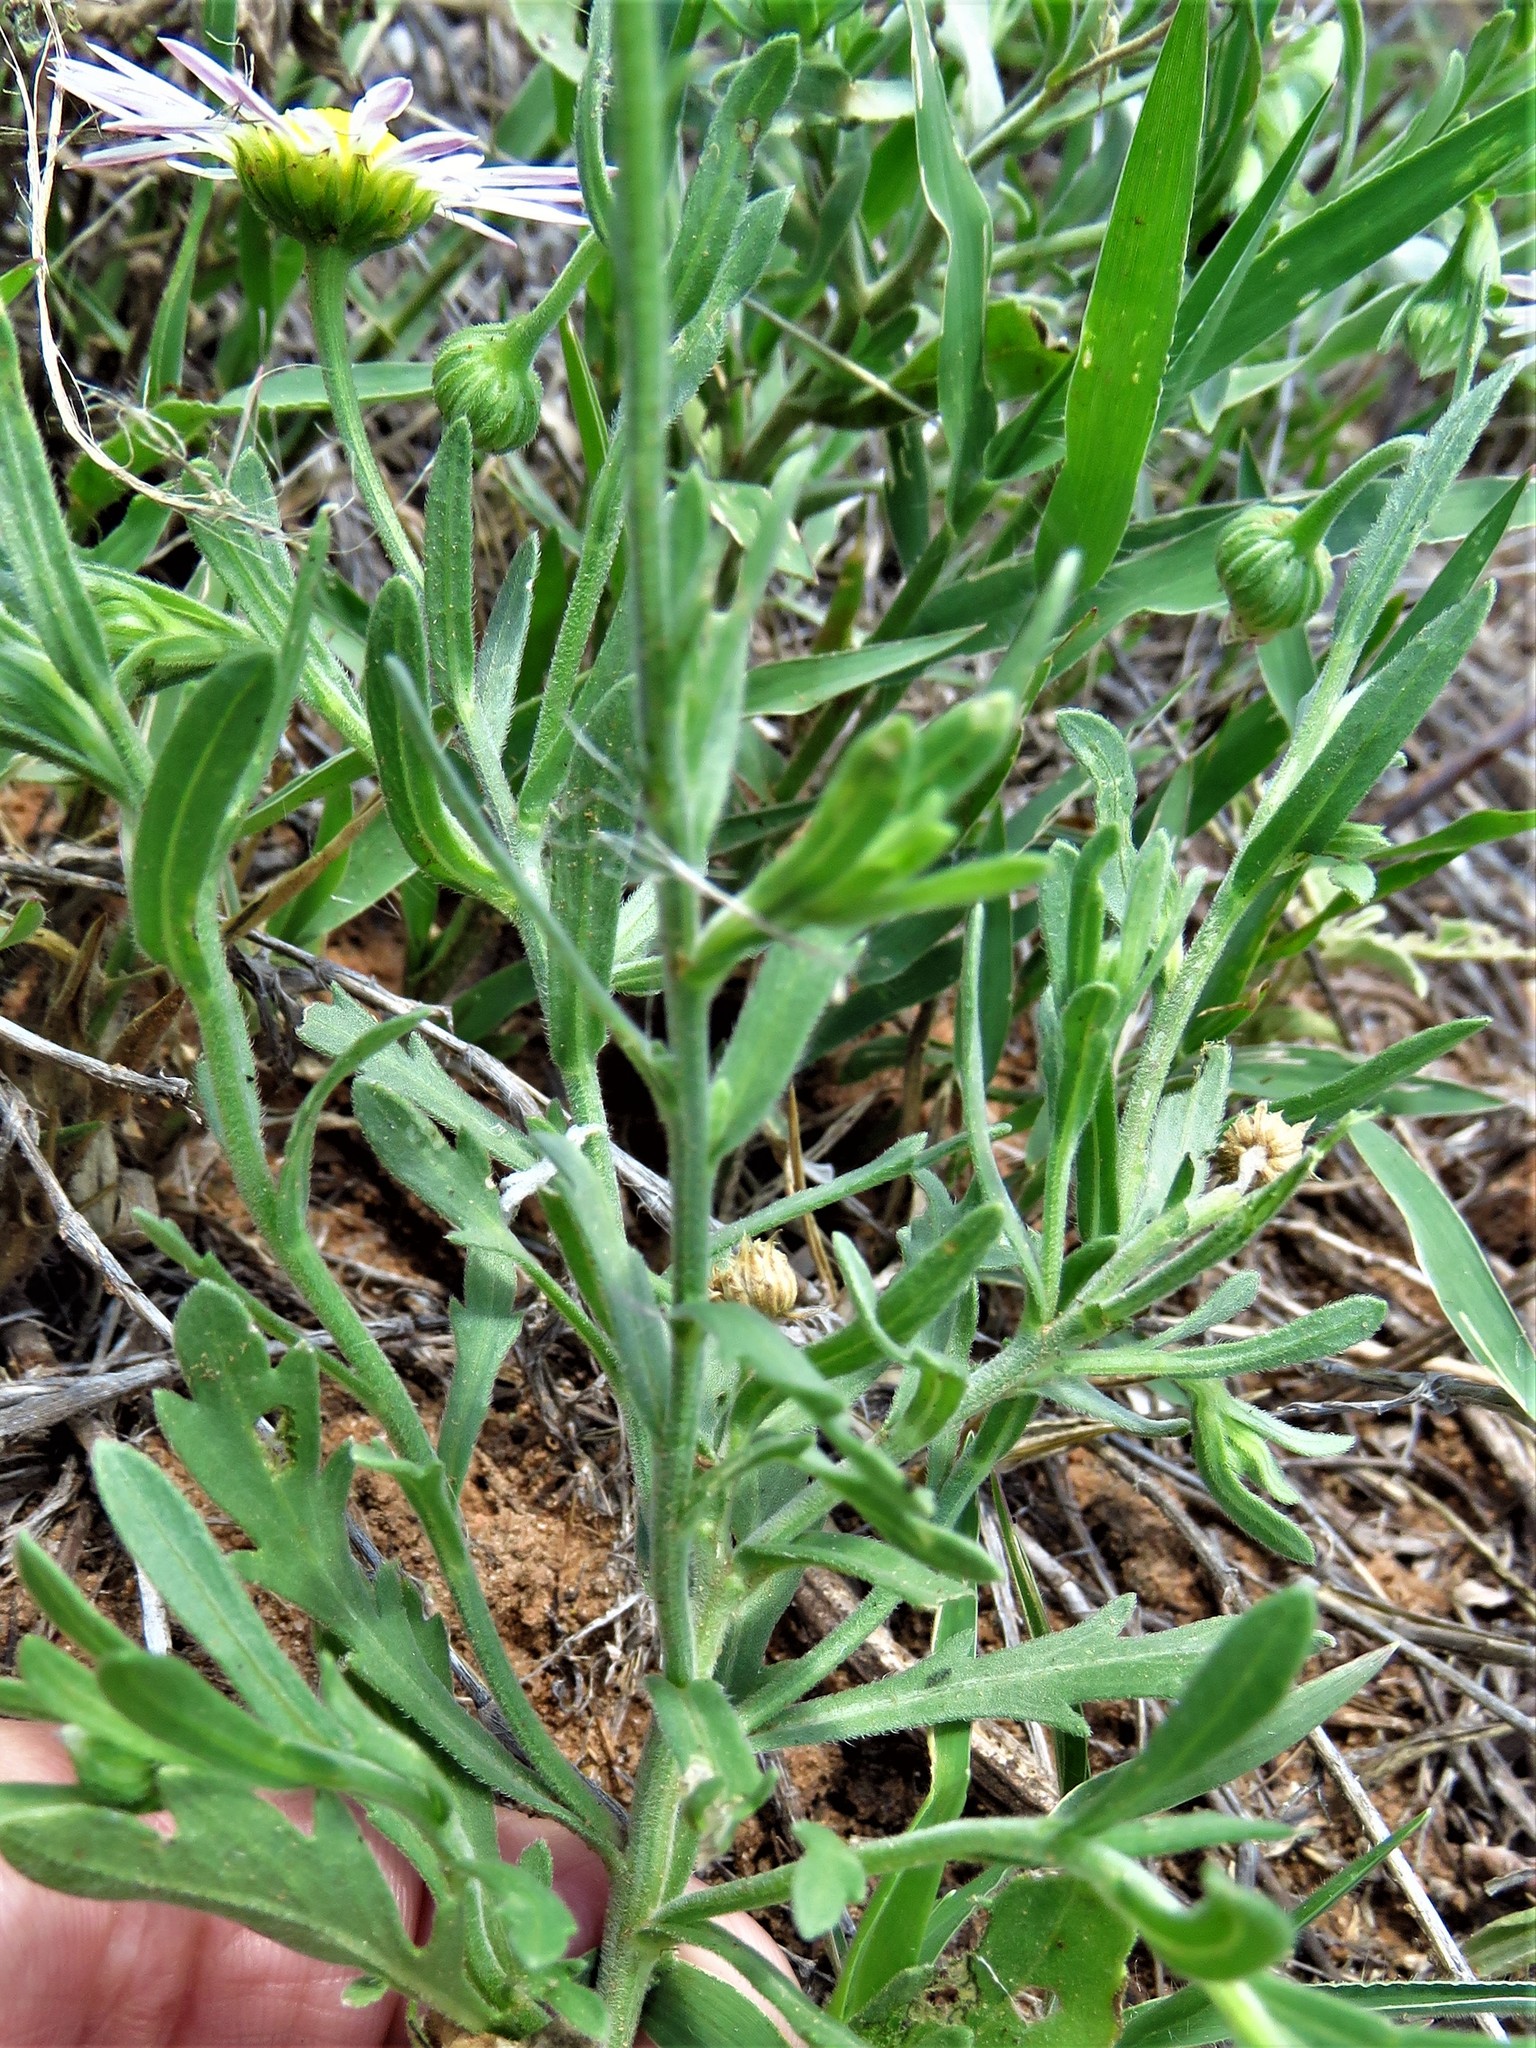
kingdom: Plantae
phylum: Tracheophyta
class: Magnoliopsida
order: Asterales
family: Asteraceae
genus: Aphanostephus
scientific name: Aphanostephus skirrhobasis
